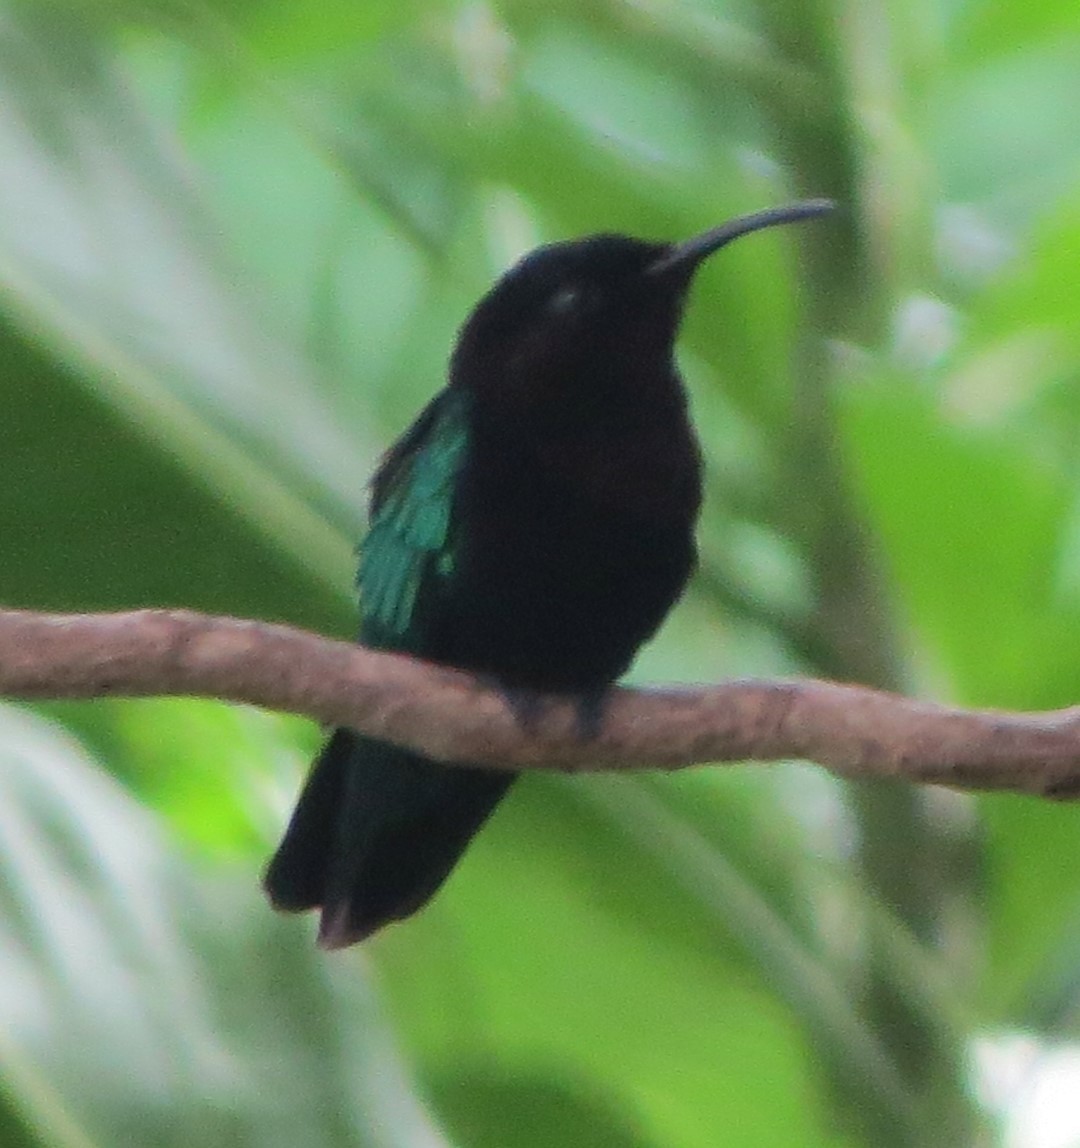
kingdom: Animalia
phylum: Chordata
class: Aves
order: Apodiformes
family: Trochilidae
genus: Eulampis
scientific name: Eulampis jugularis
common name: Purple-throated carib
